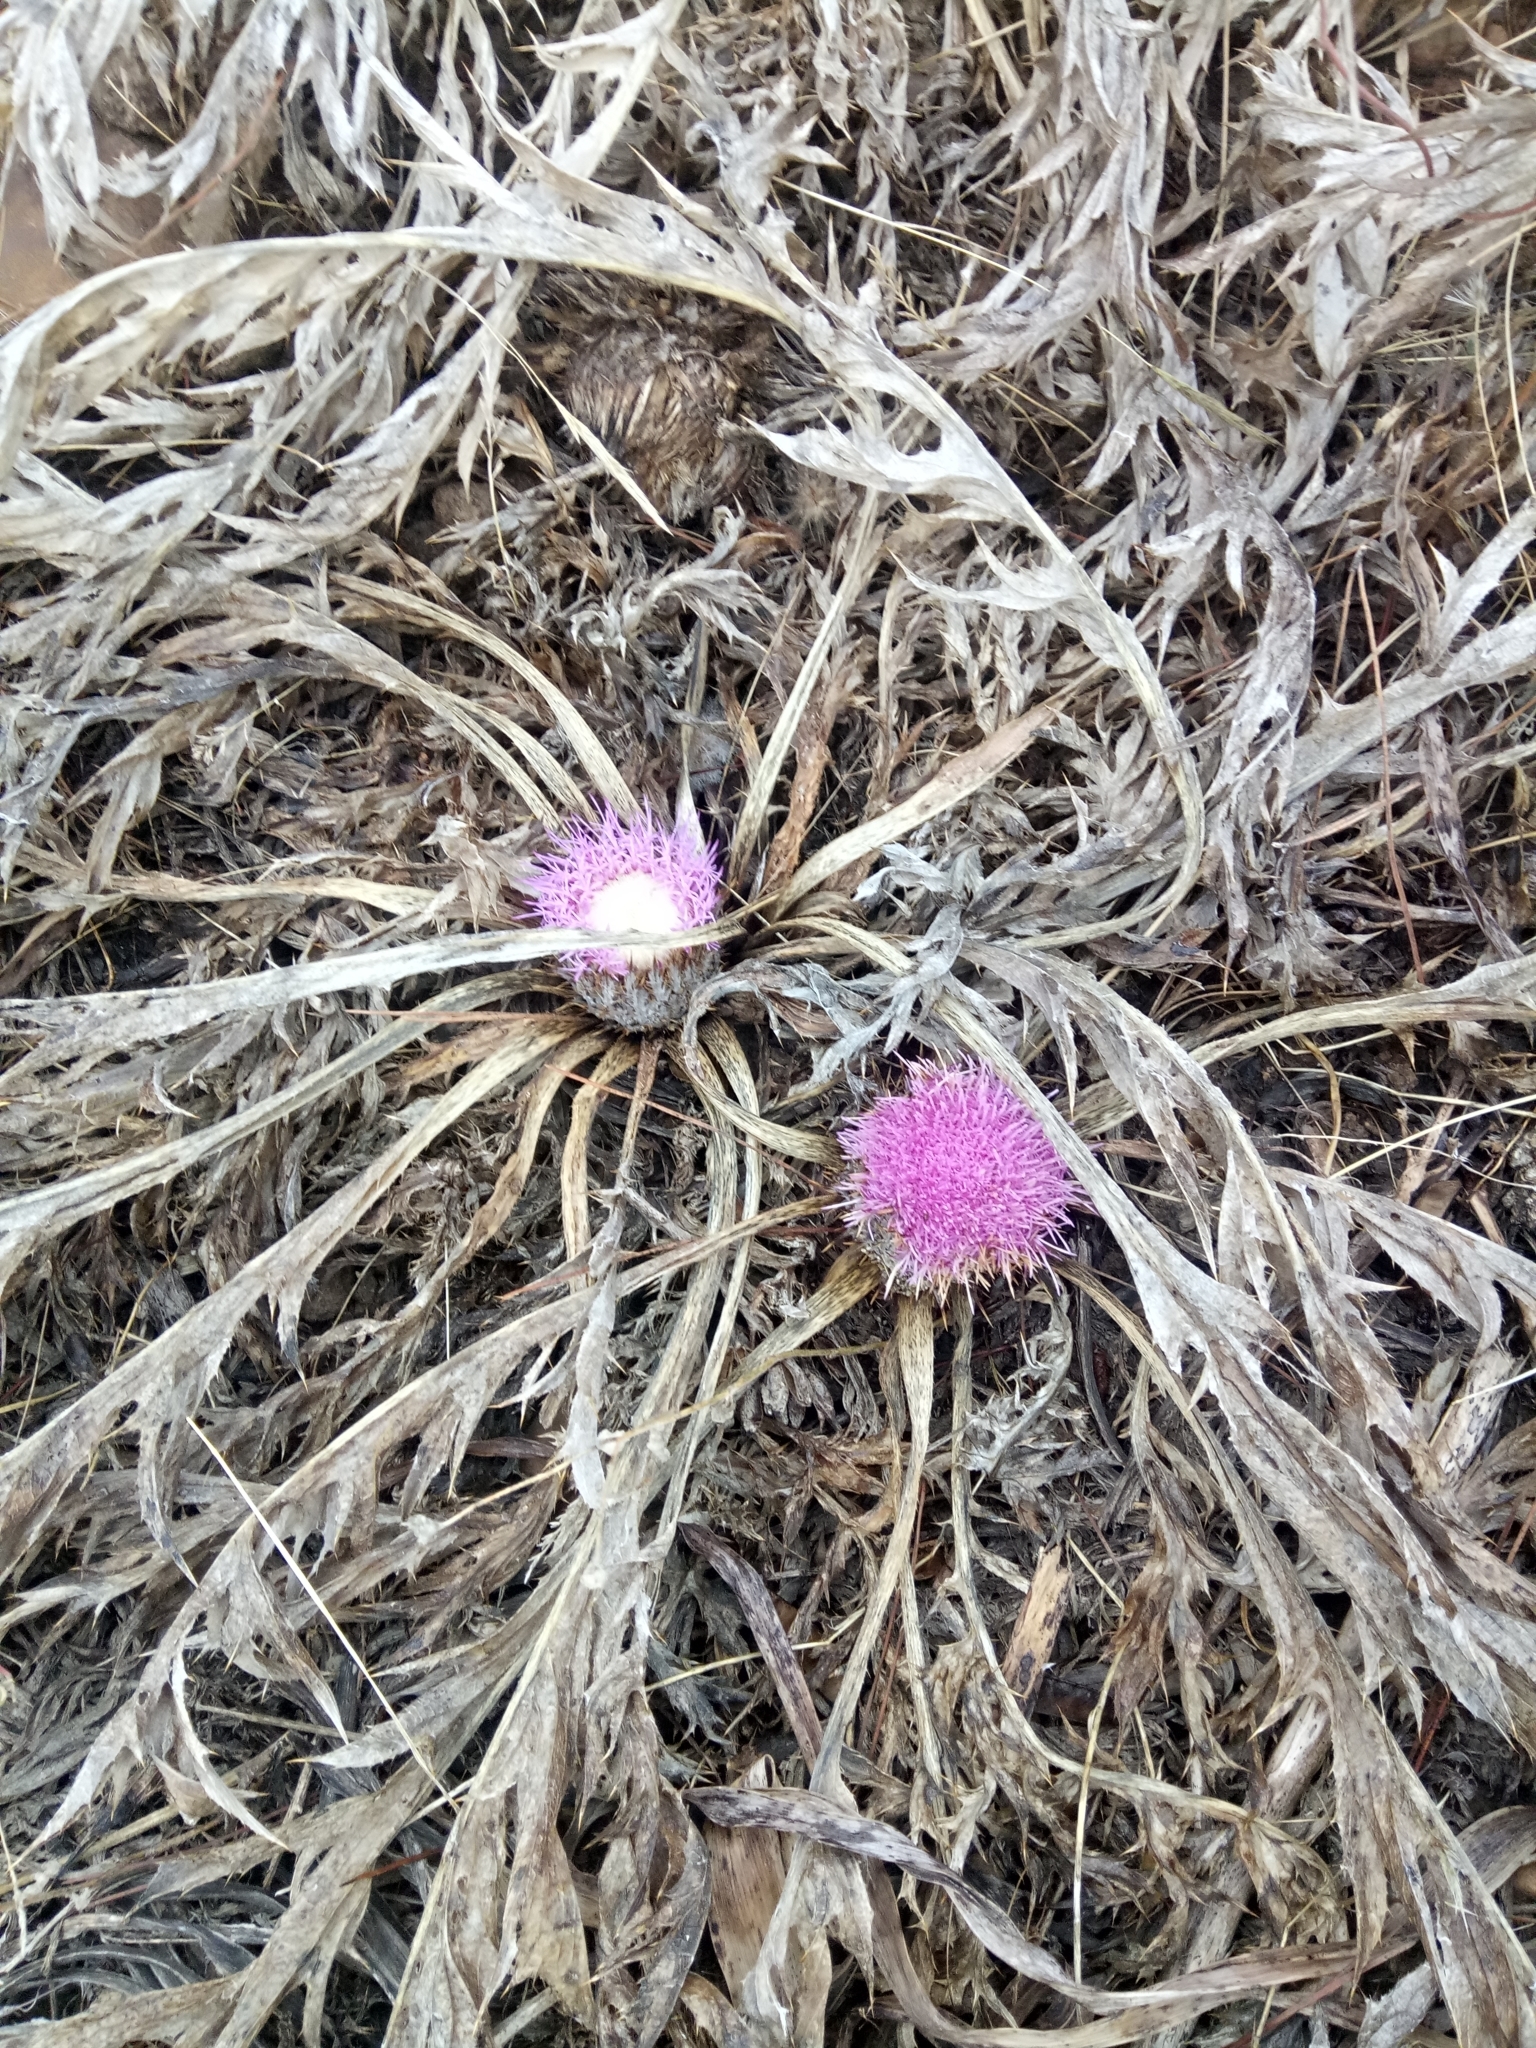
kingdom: Plantae
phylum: Tracheophyta
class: Magnoliopsida
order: Asterales
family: Asteraceae
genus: Chamaeleon
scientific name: Chamaeleon gummifer
